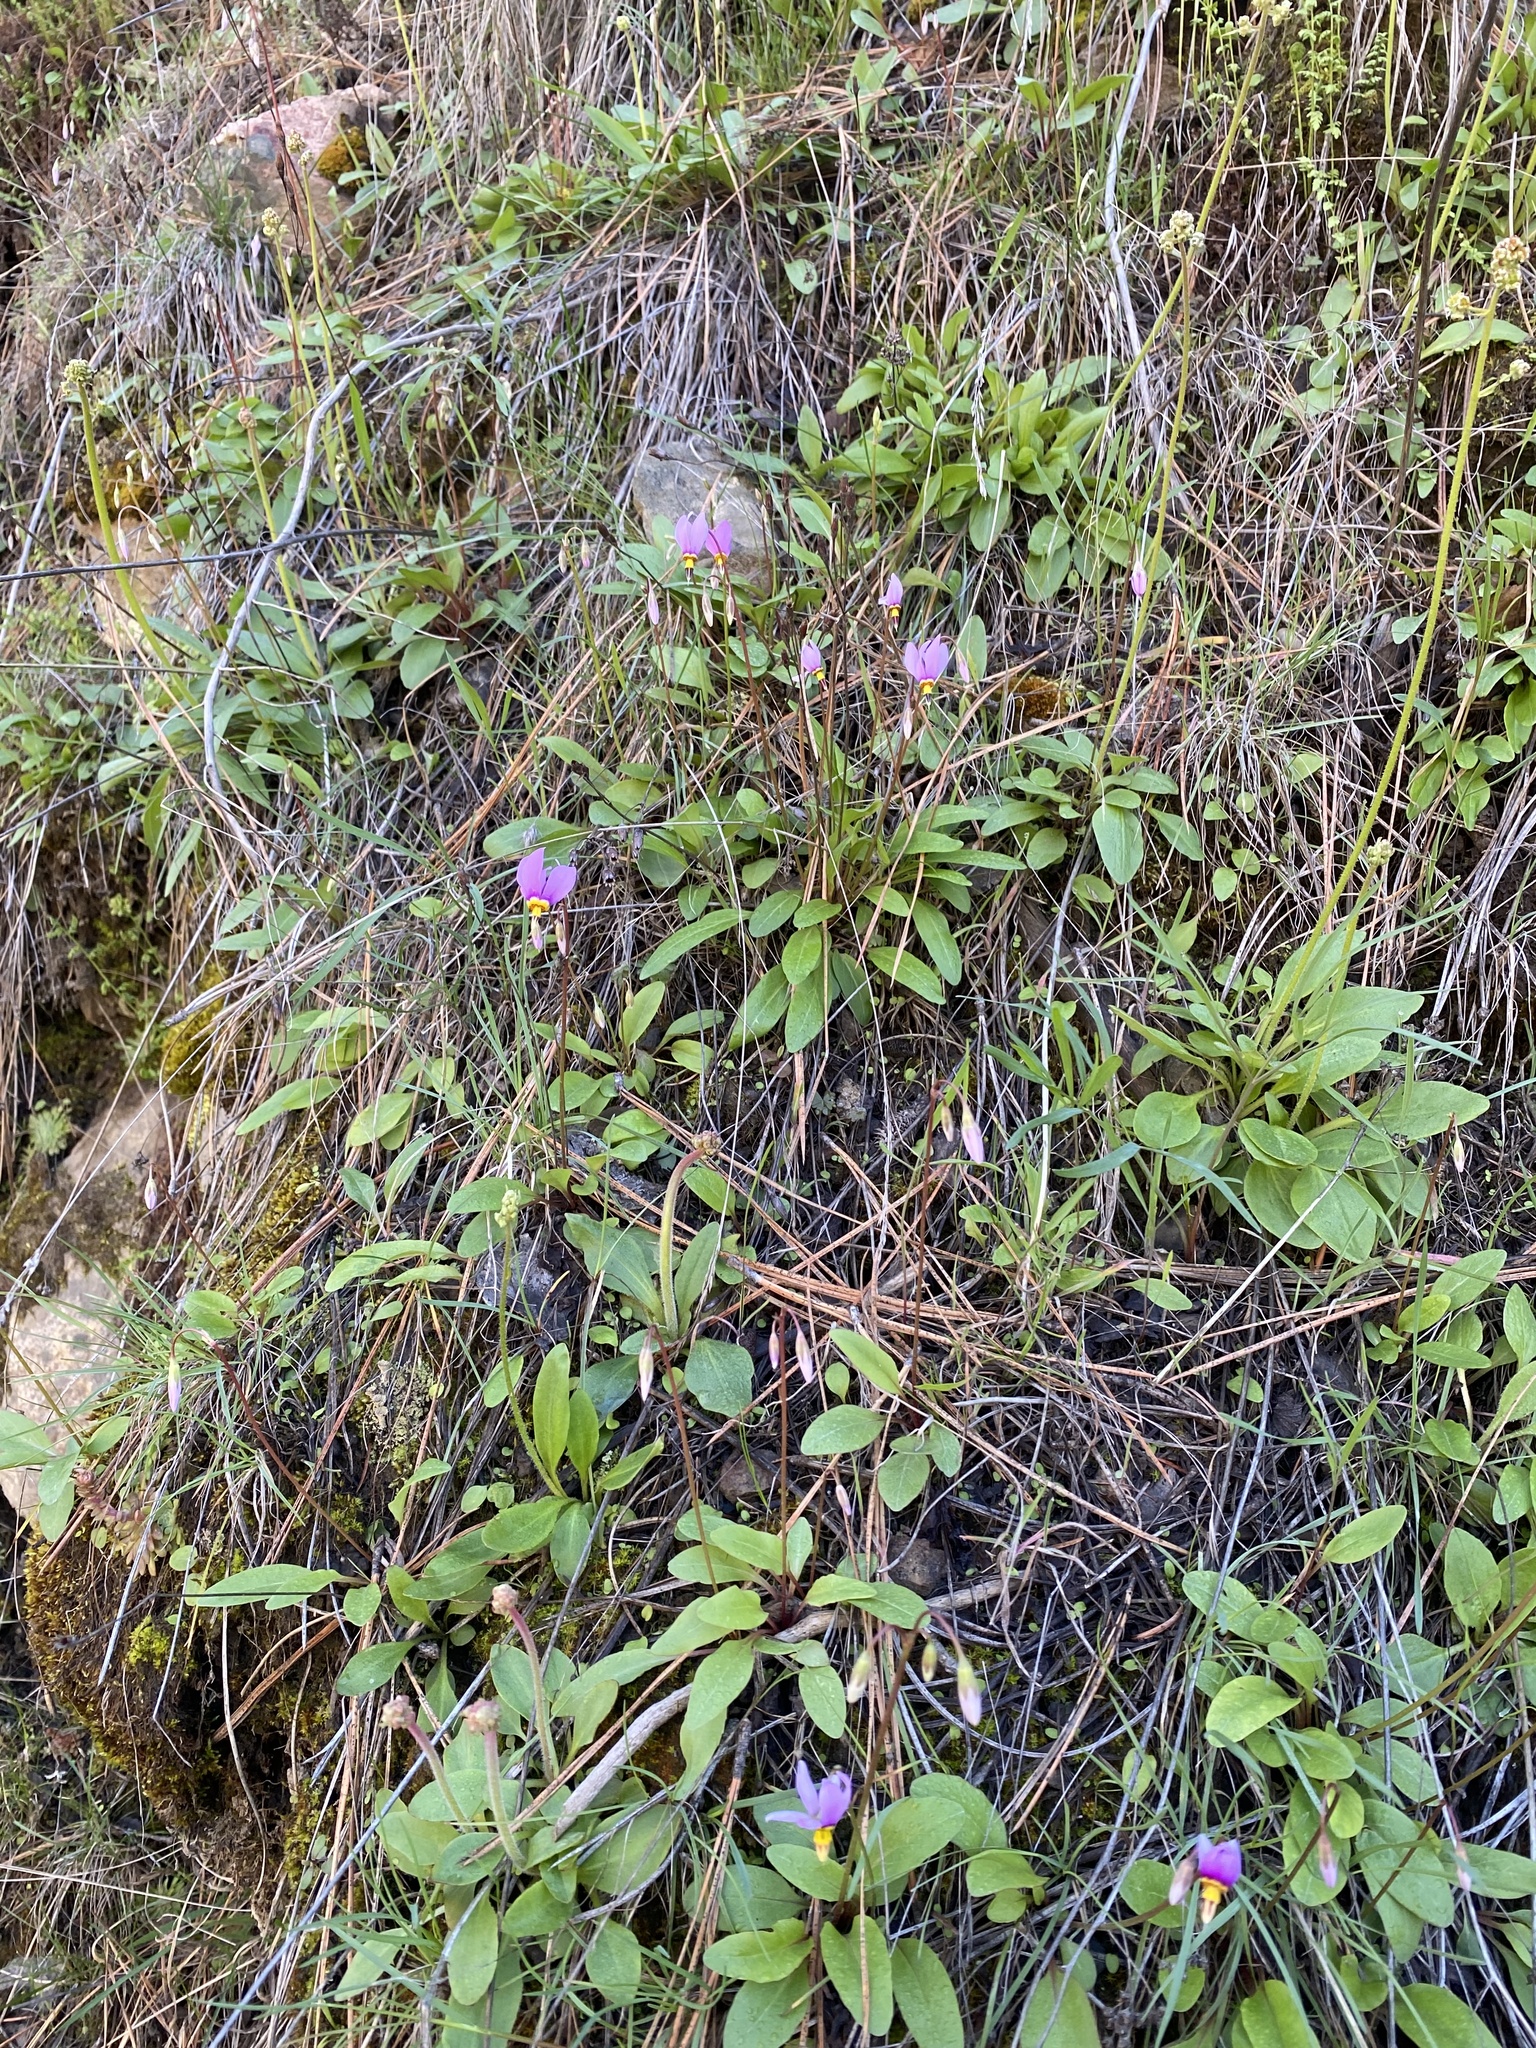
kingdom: Plantae
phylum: Tracheophyta
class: Magnoliopsida
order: Ericales
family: Primulaceae
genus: Dodecatheon
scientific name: Dodecatheon pulchellum
